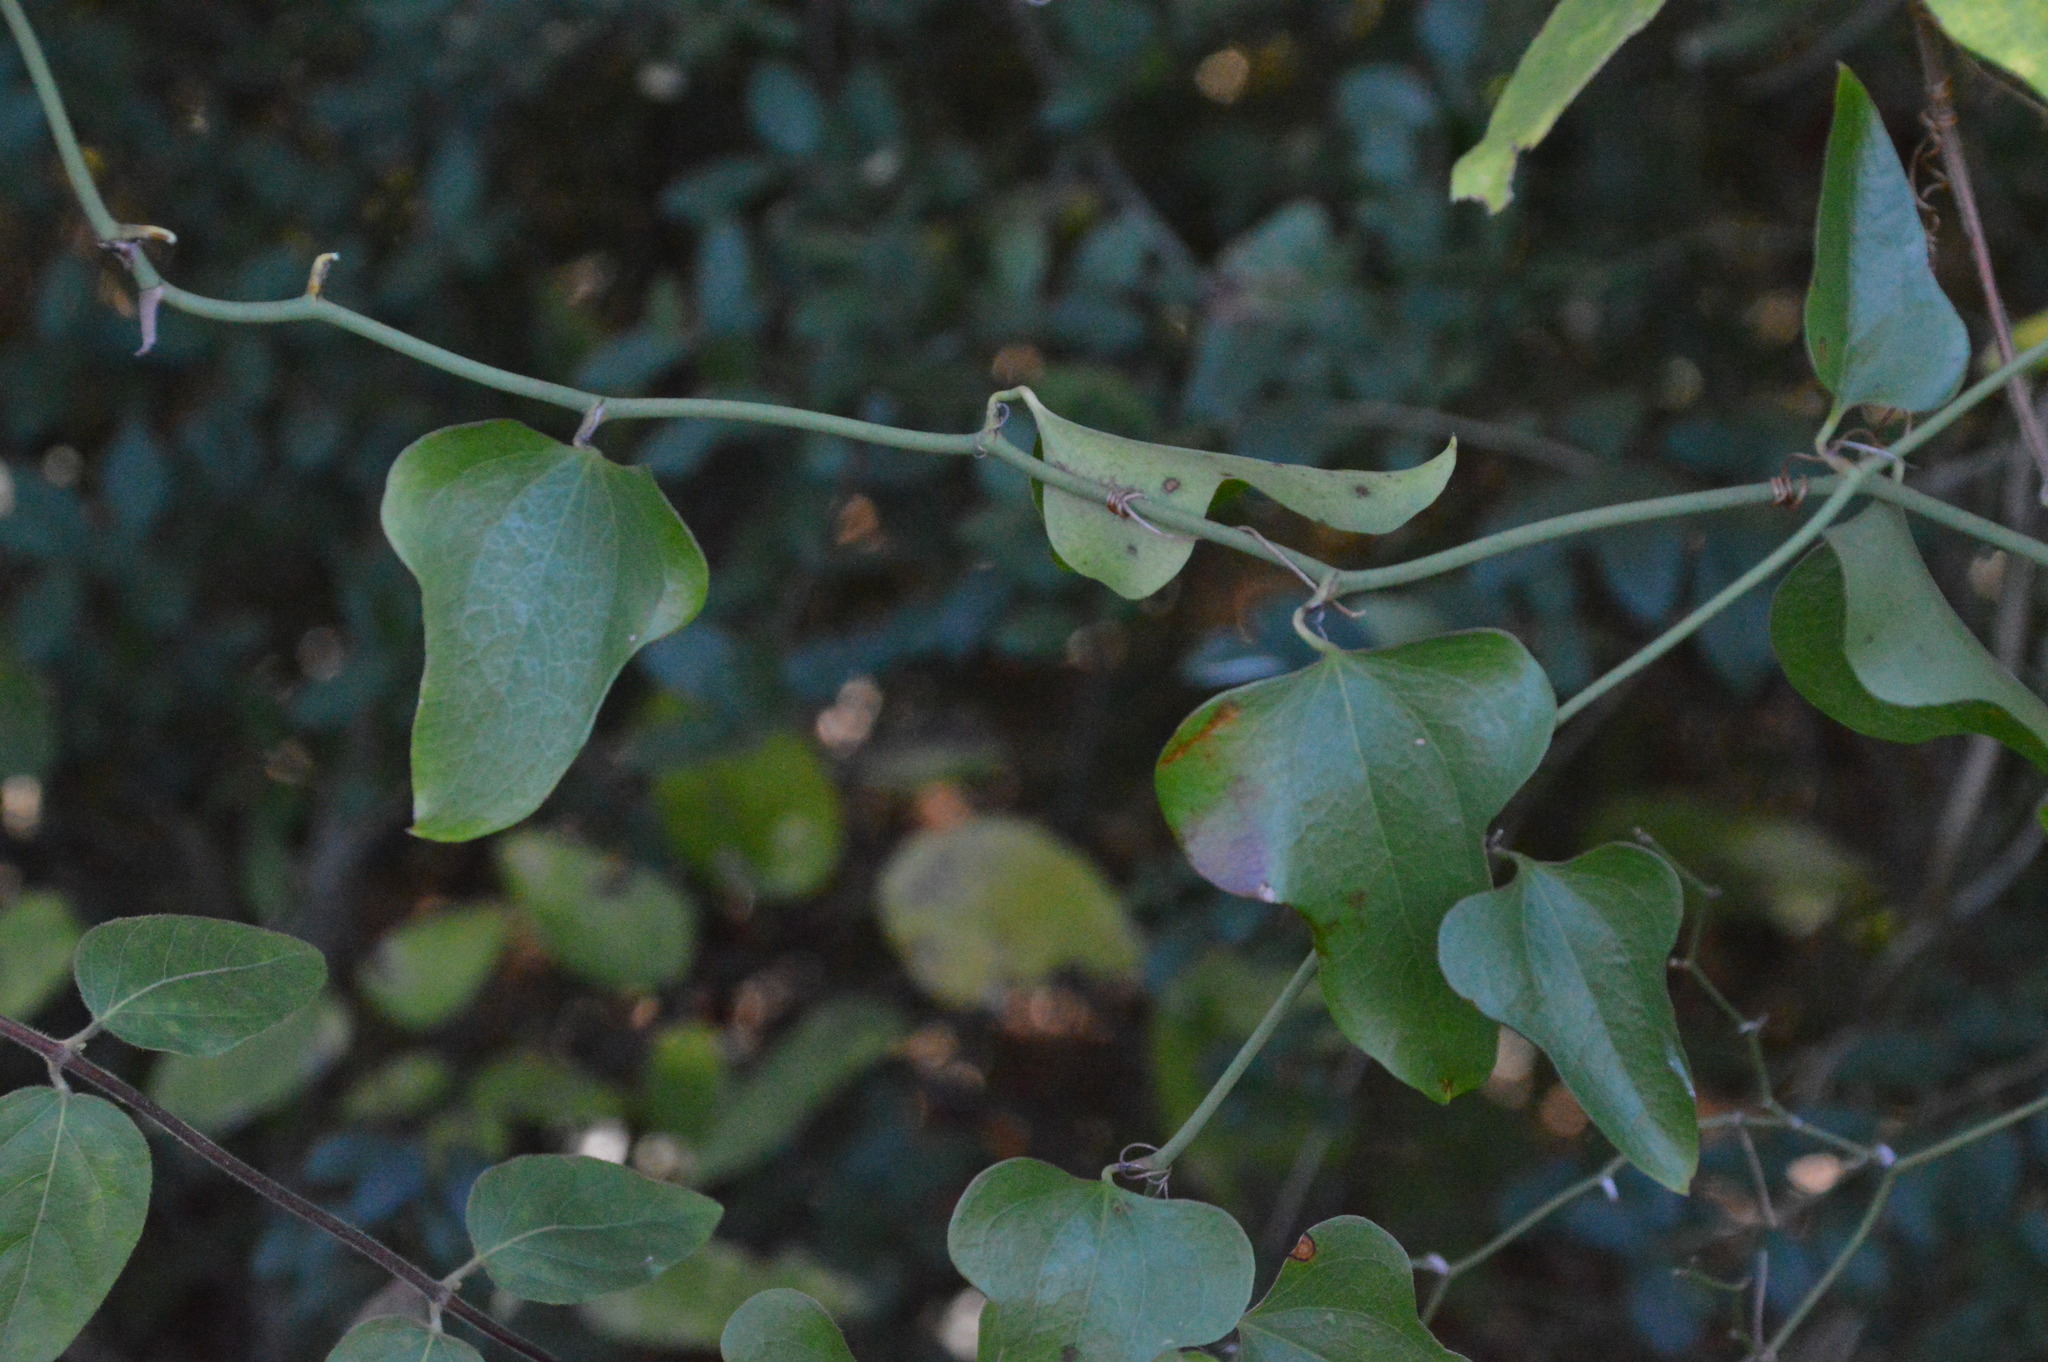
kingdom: Plantae
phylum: Tracheophyta
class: Liliopsida
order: Liliales
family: Smilacaceae
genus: Smilax
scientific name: Smilax bona-nox
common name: Catbrier
